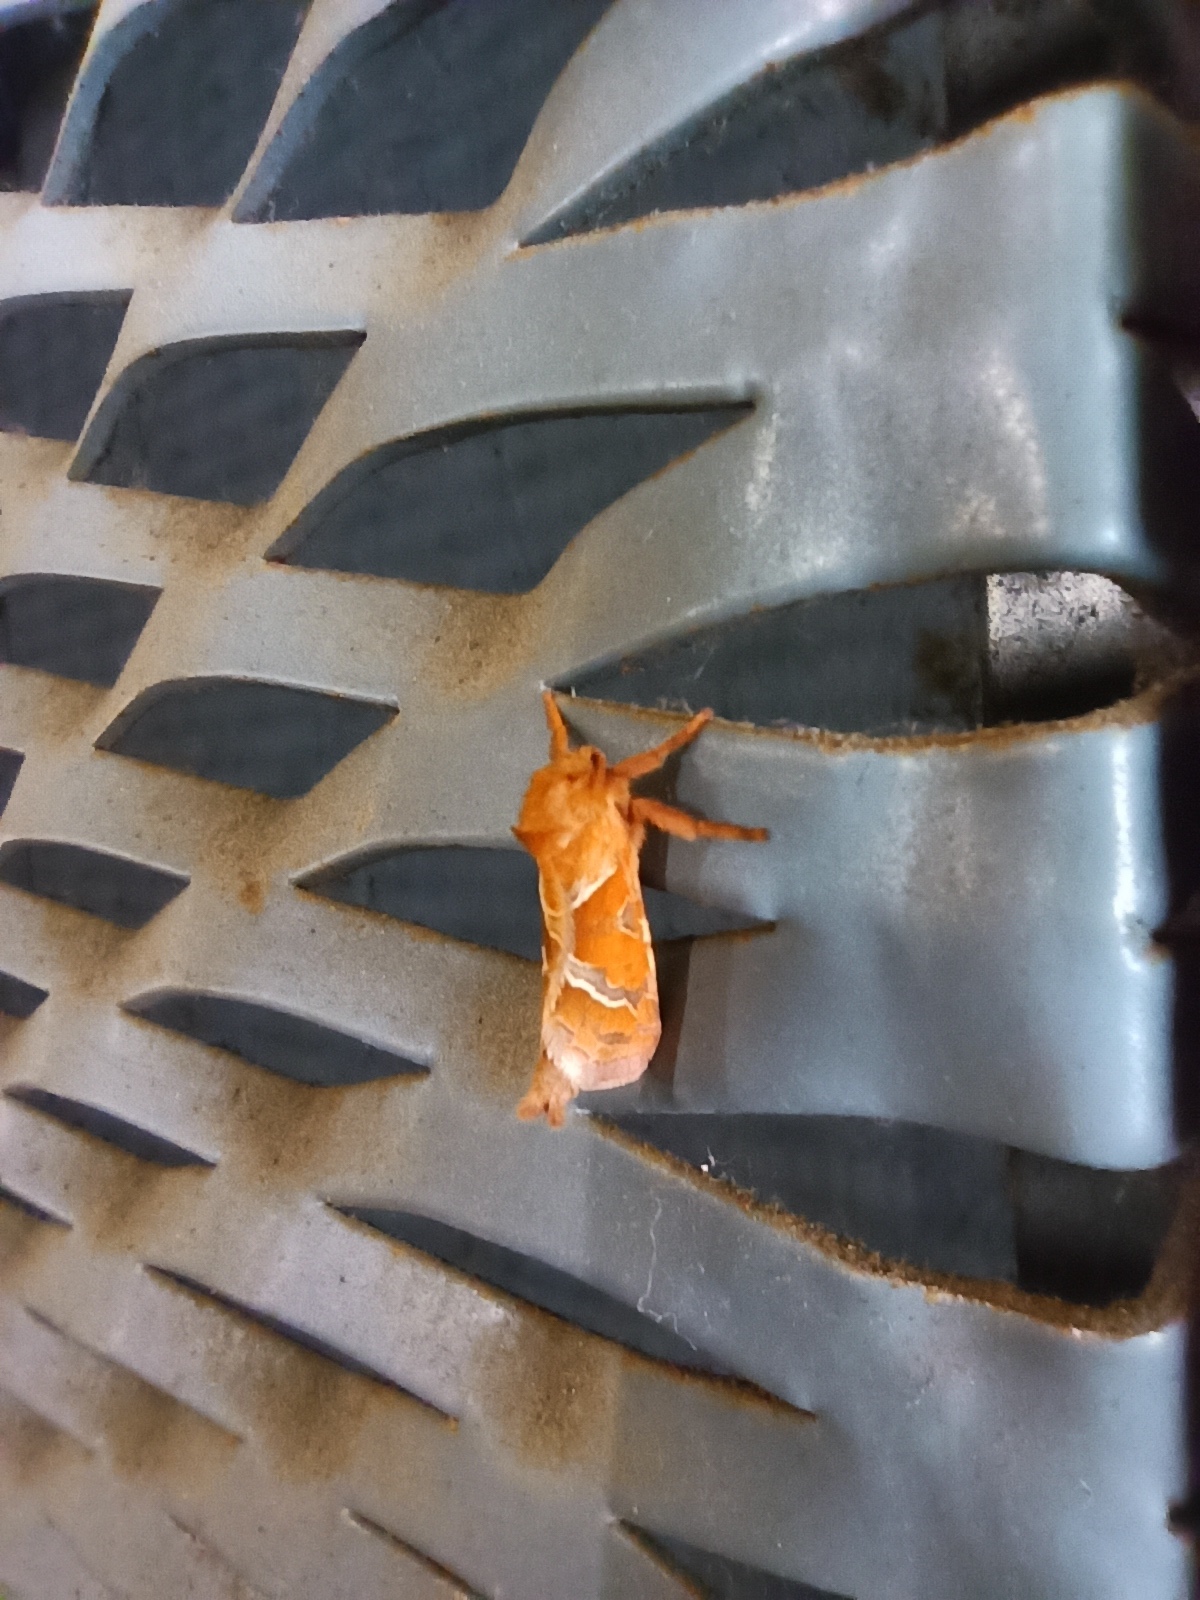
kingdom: Animalia
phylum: Arthropoda
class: Insecta
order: Lepidoptera
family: Hepialidae
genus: Triodia
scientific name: Triodia sylvina
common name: Orange swift
